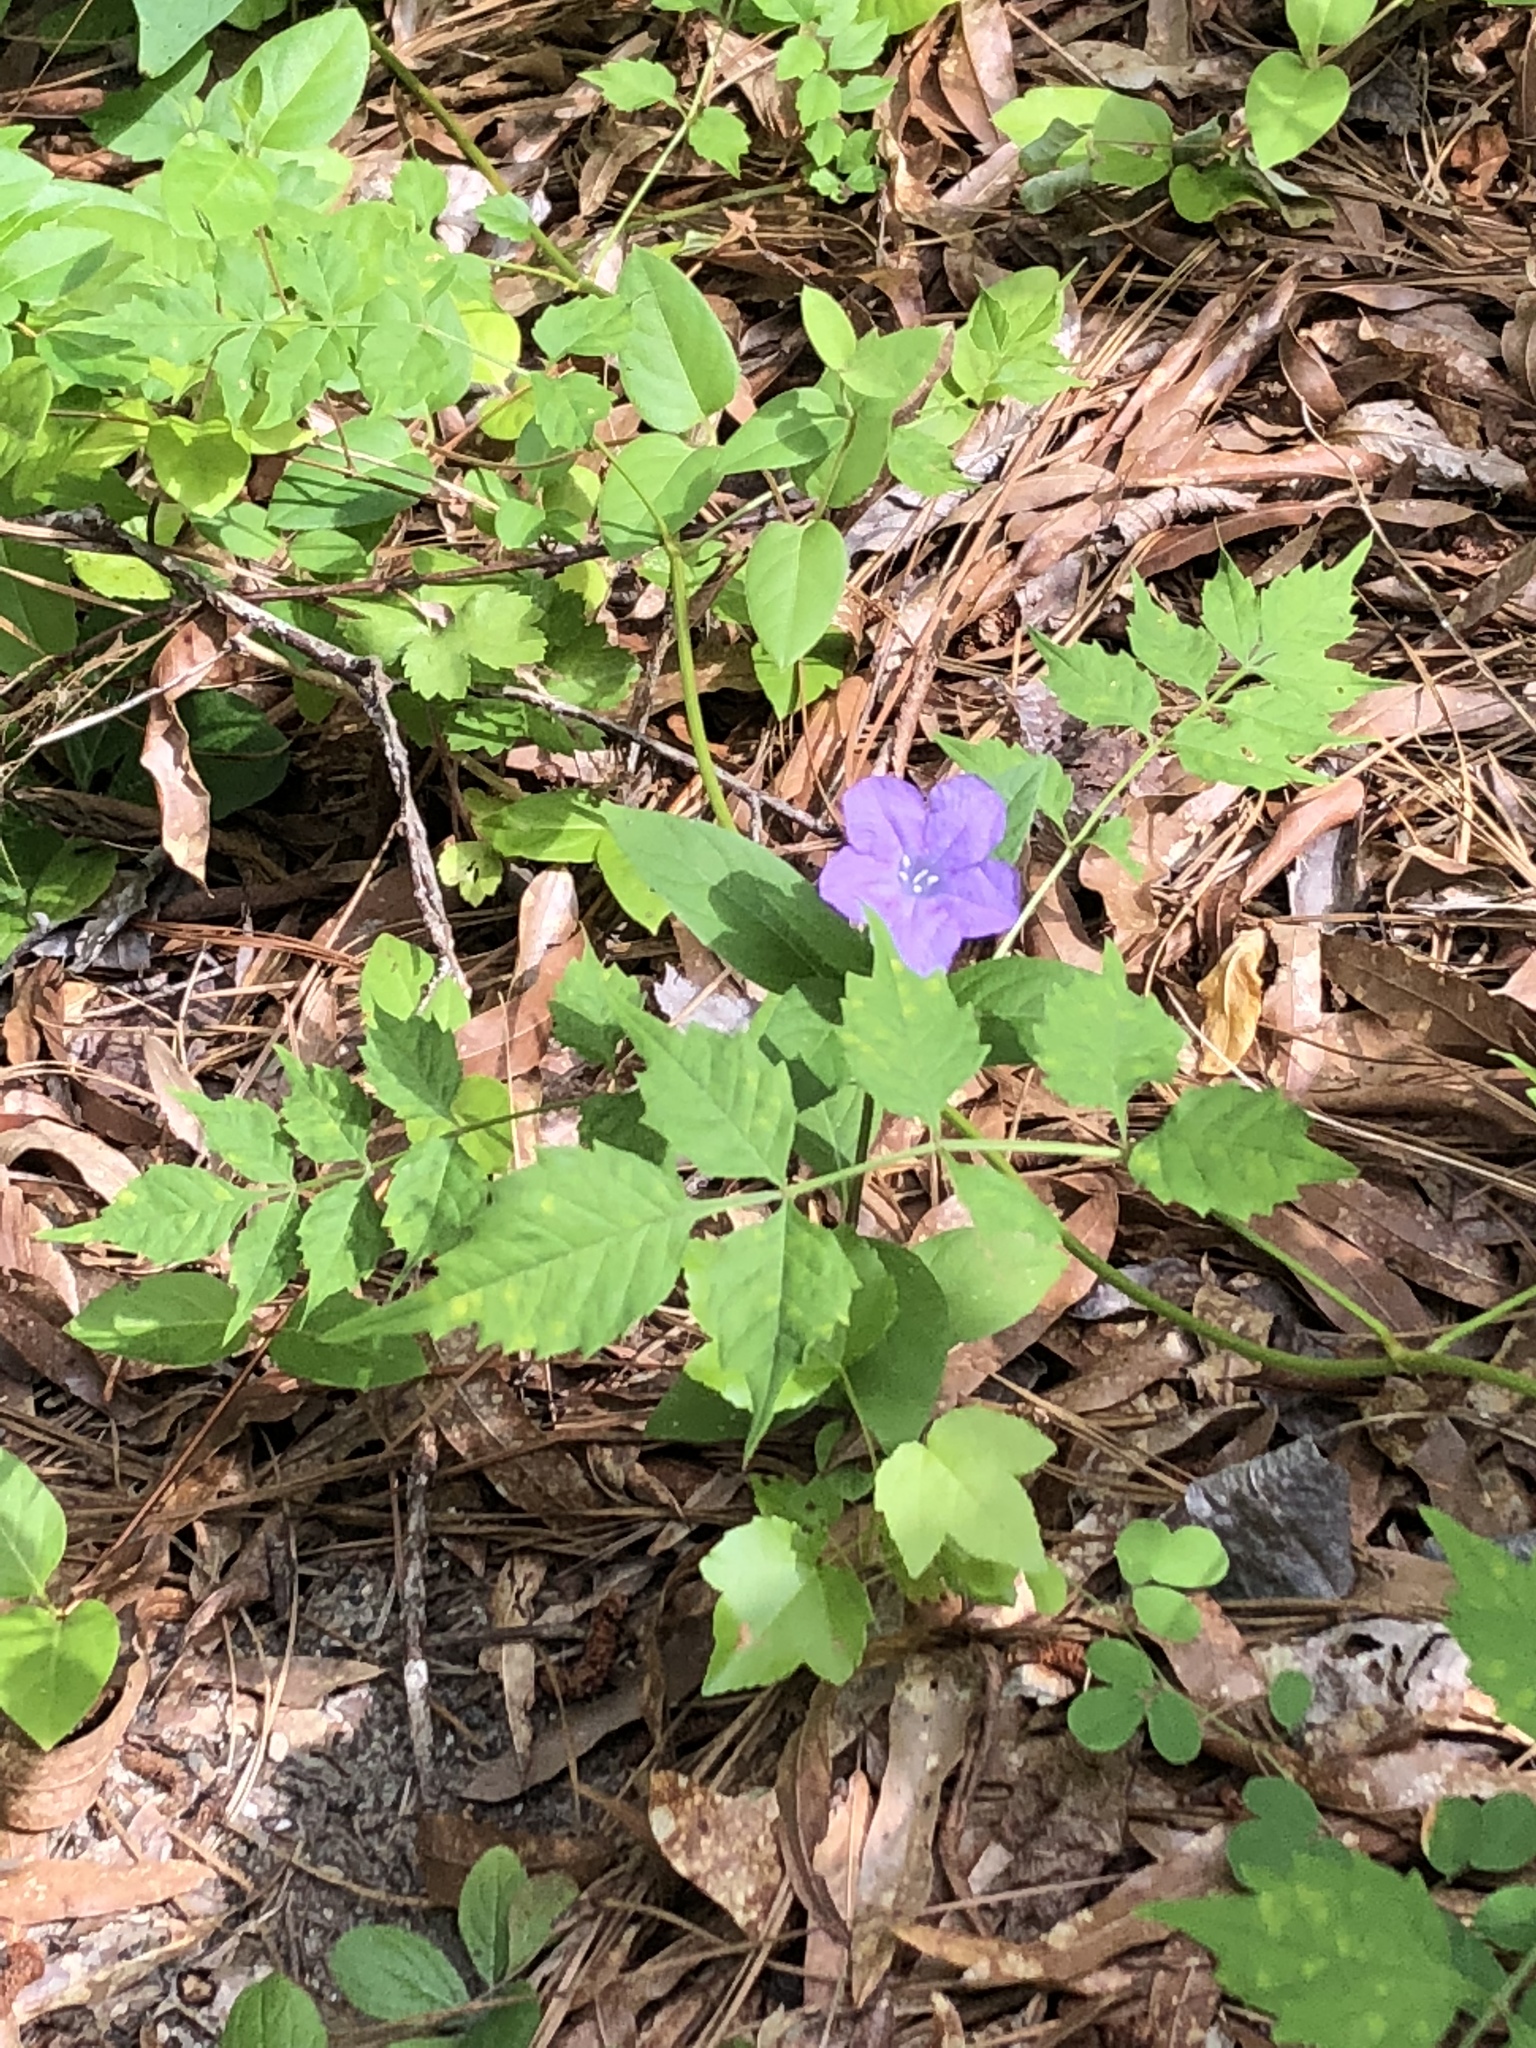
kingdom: Plantae
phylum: Tracheophyta
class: Magnoliopsida
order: Lamiales
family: Acanthaceae
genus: Ruellia
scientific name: Ruellia caroliniensis
